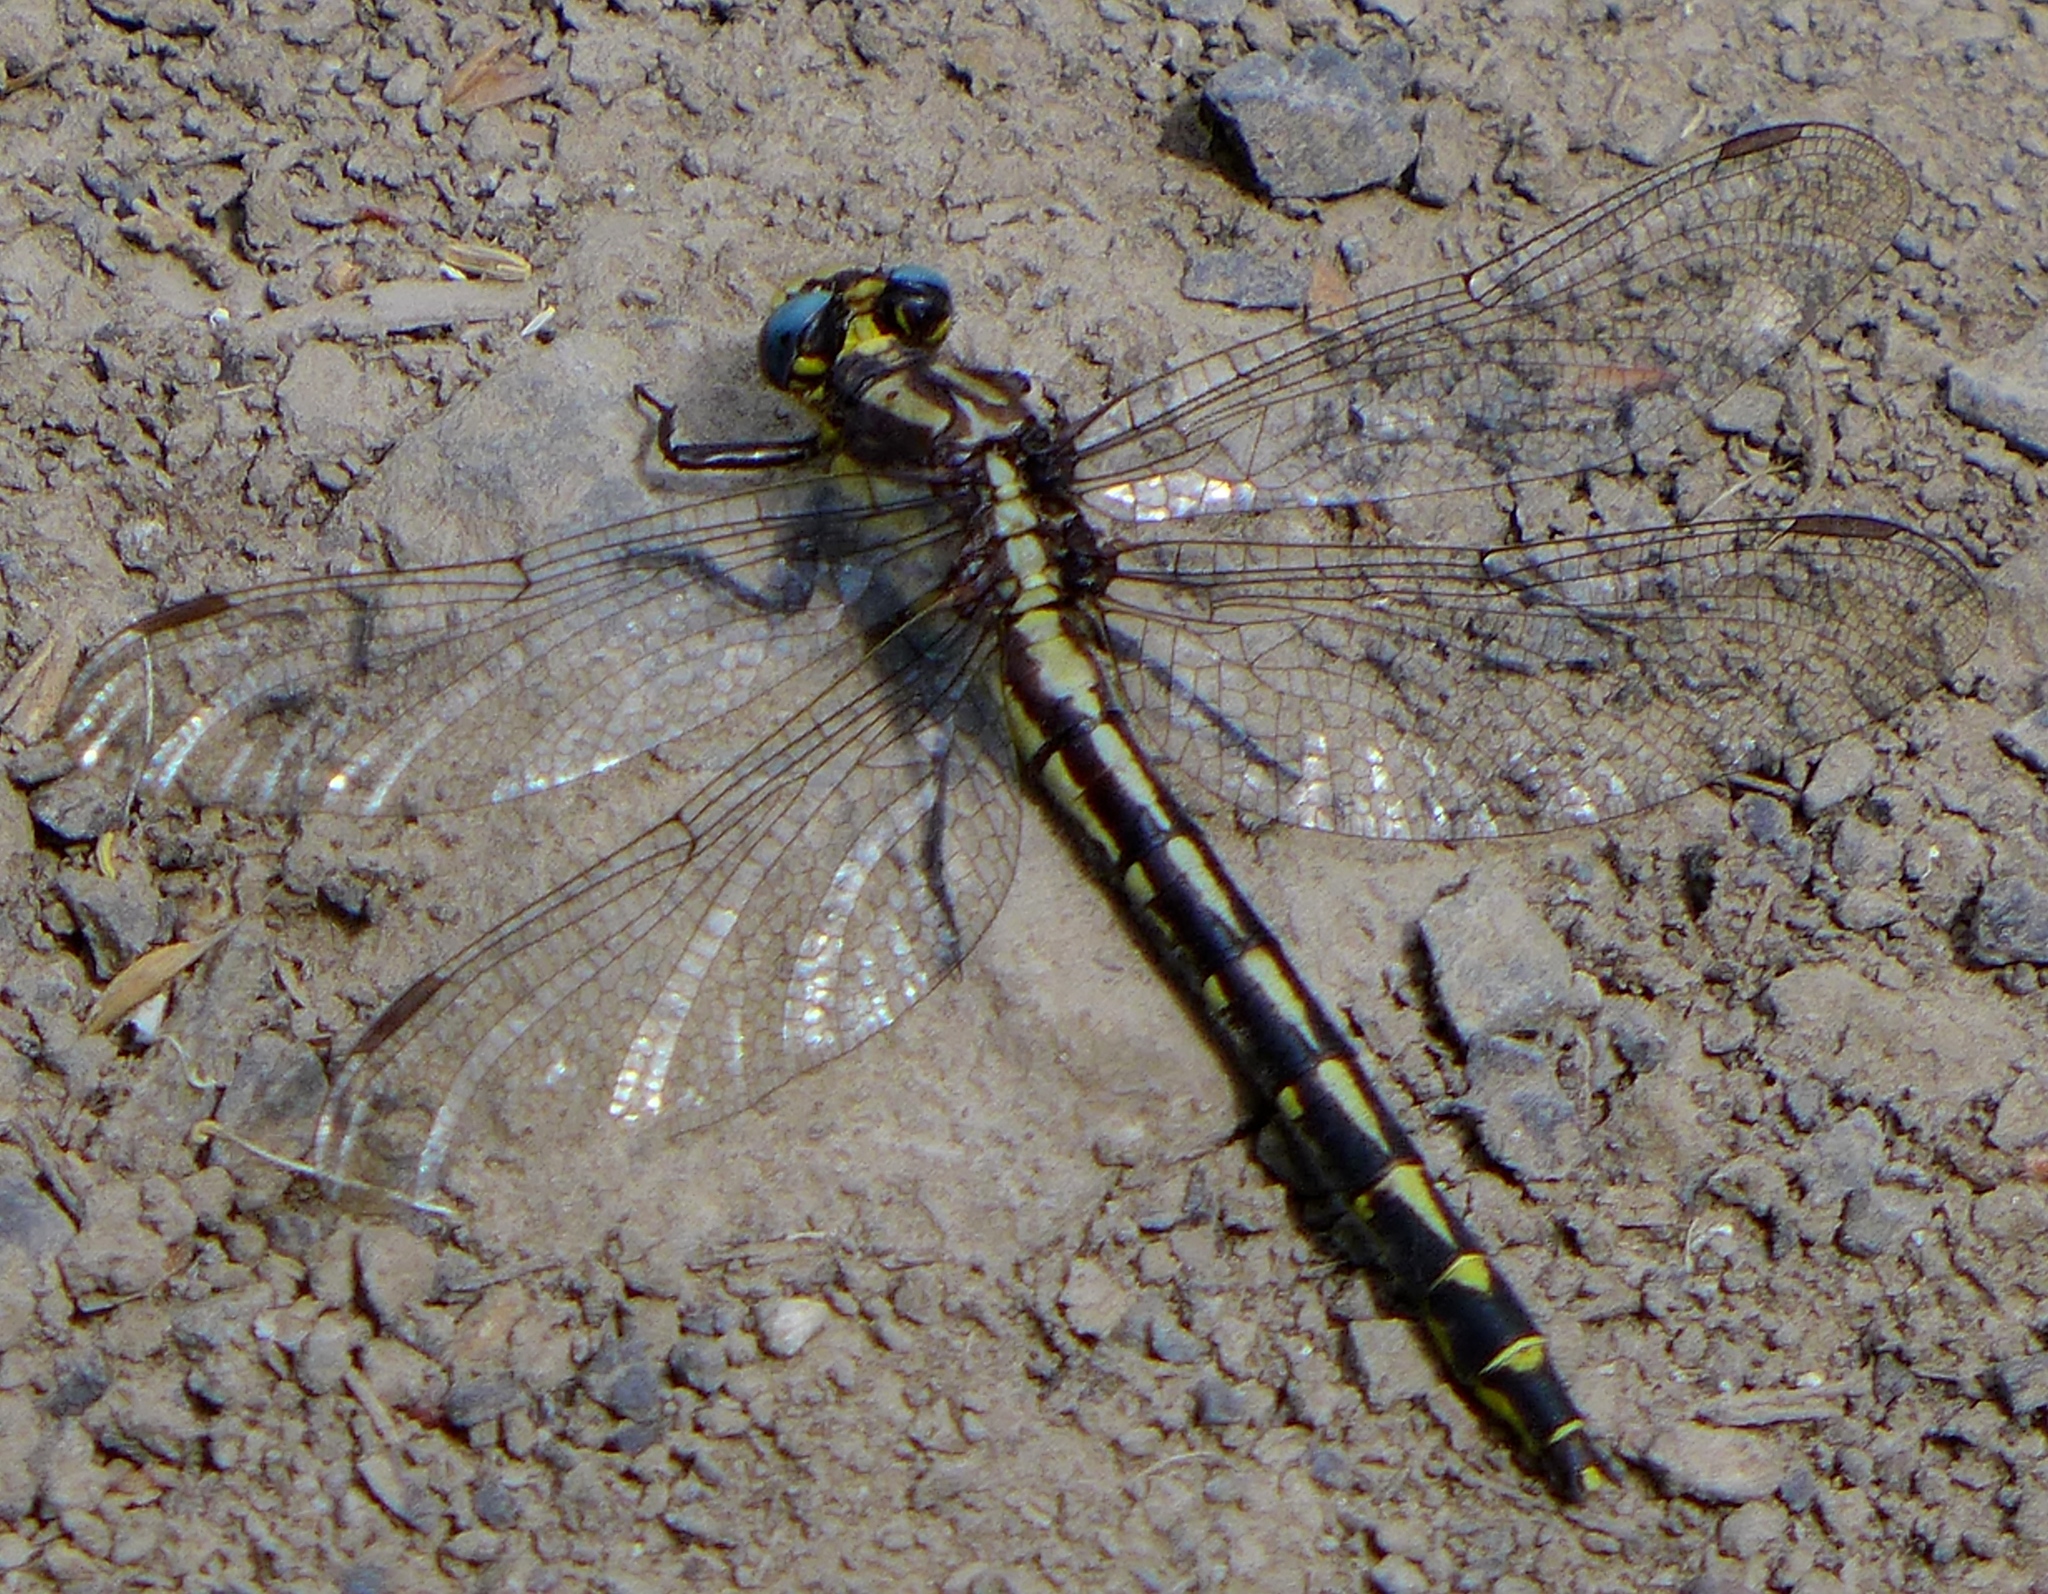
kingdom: Animalia
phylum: Arthropoda
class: Insecta
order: Odonata
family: Gomphidae
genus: Phanogomphus
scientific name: Phanogomphus kurilis
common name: Pacific clubtail
